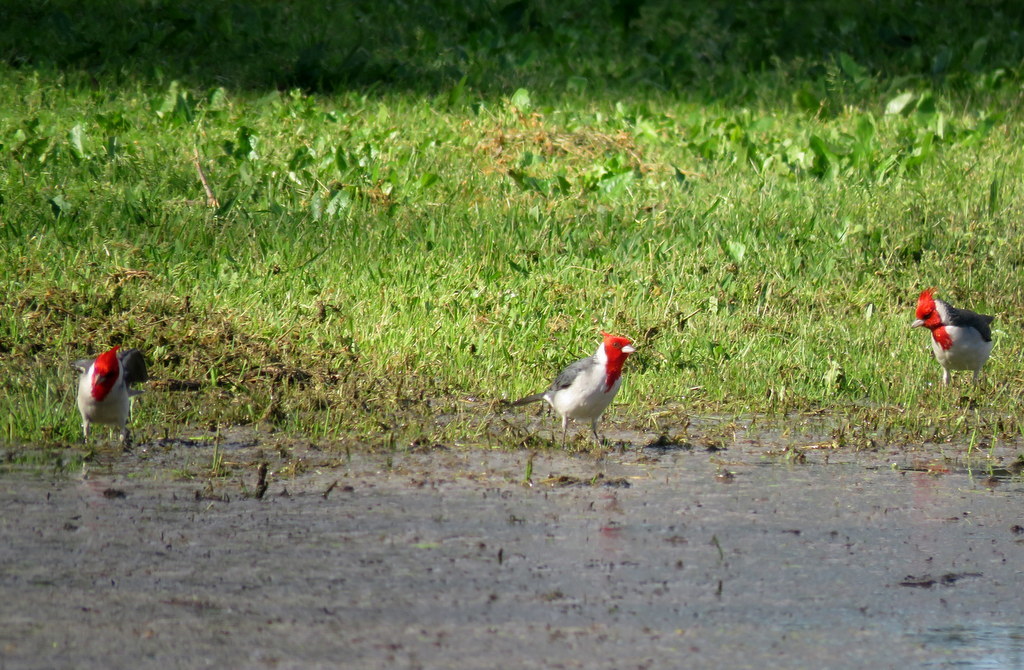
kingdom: Animalia
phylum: Chordata
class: Aves
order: Passeriformes
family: Thraupidae
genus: Paroaria
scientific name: Paroaria coronata
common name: Red-crested cardinal
